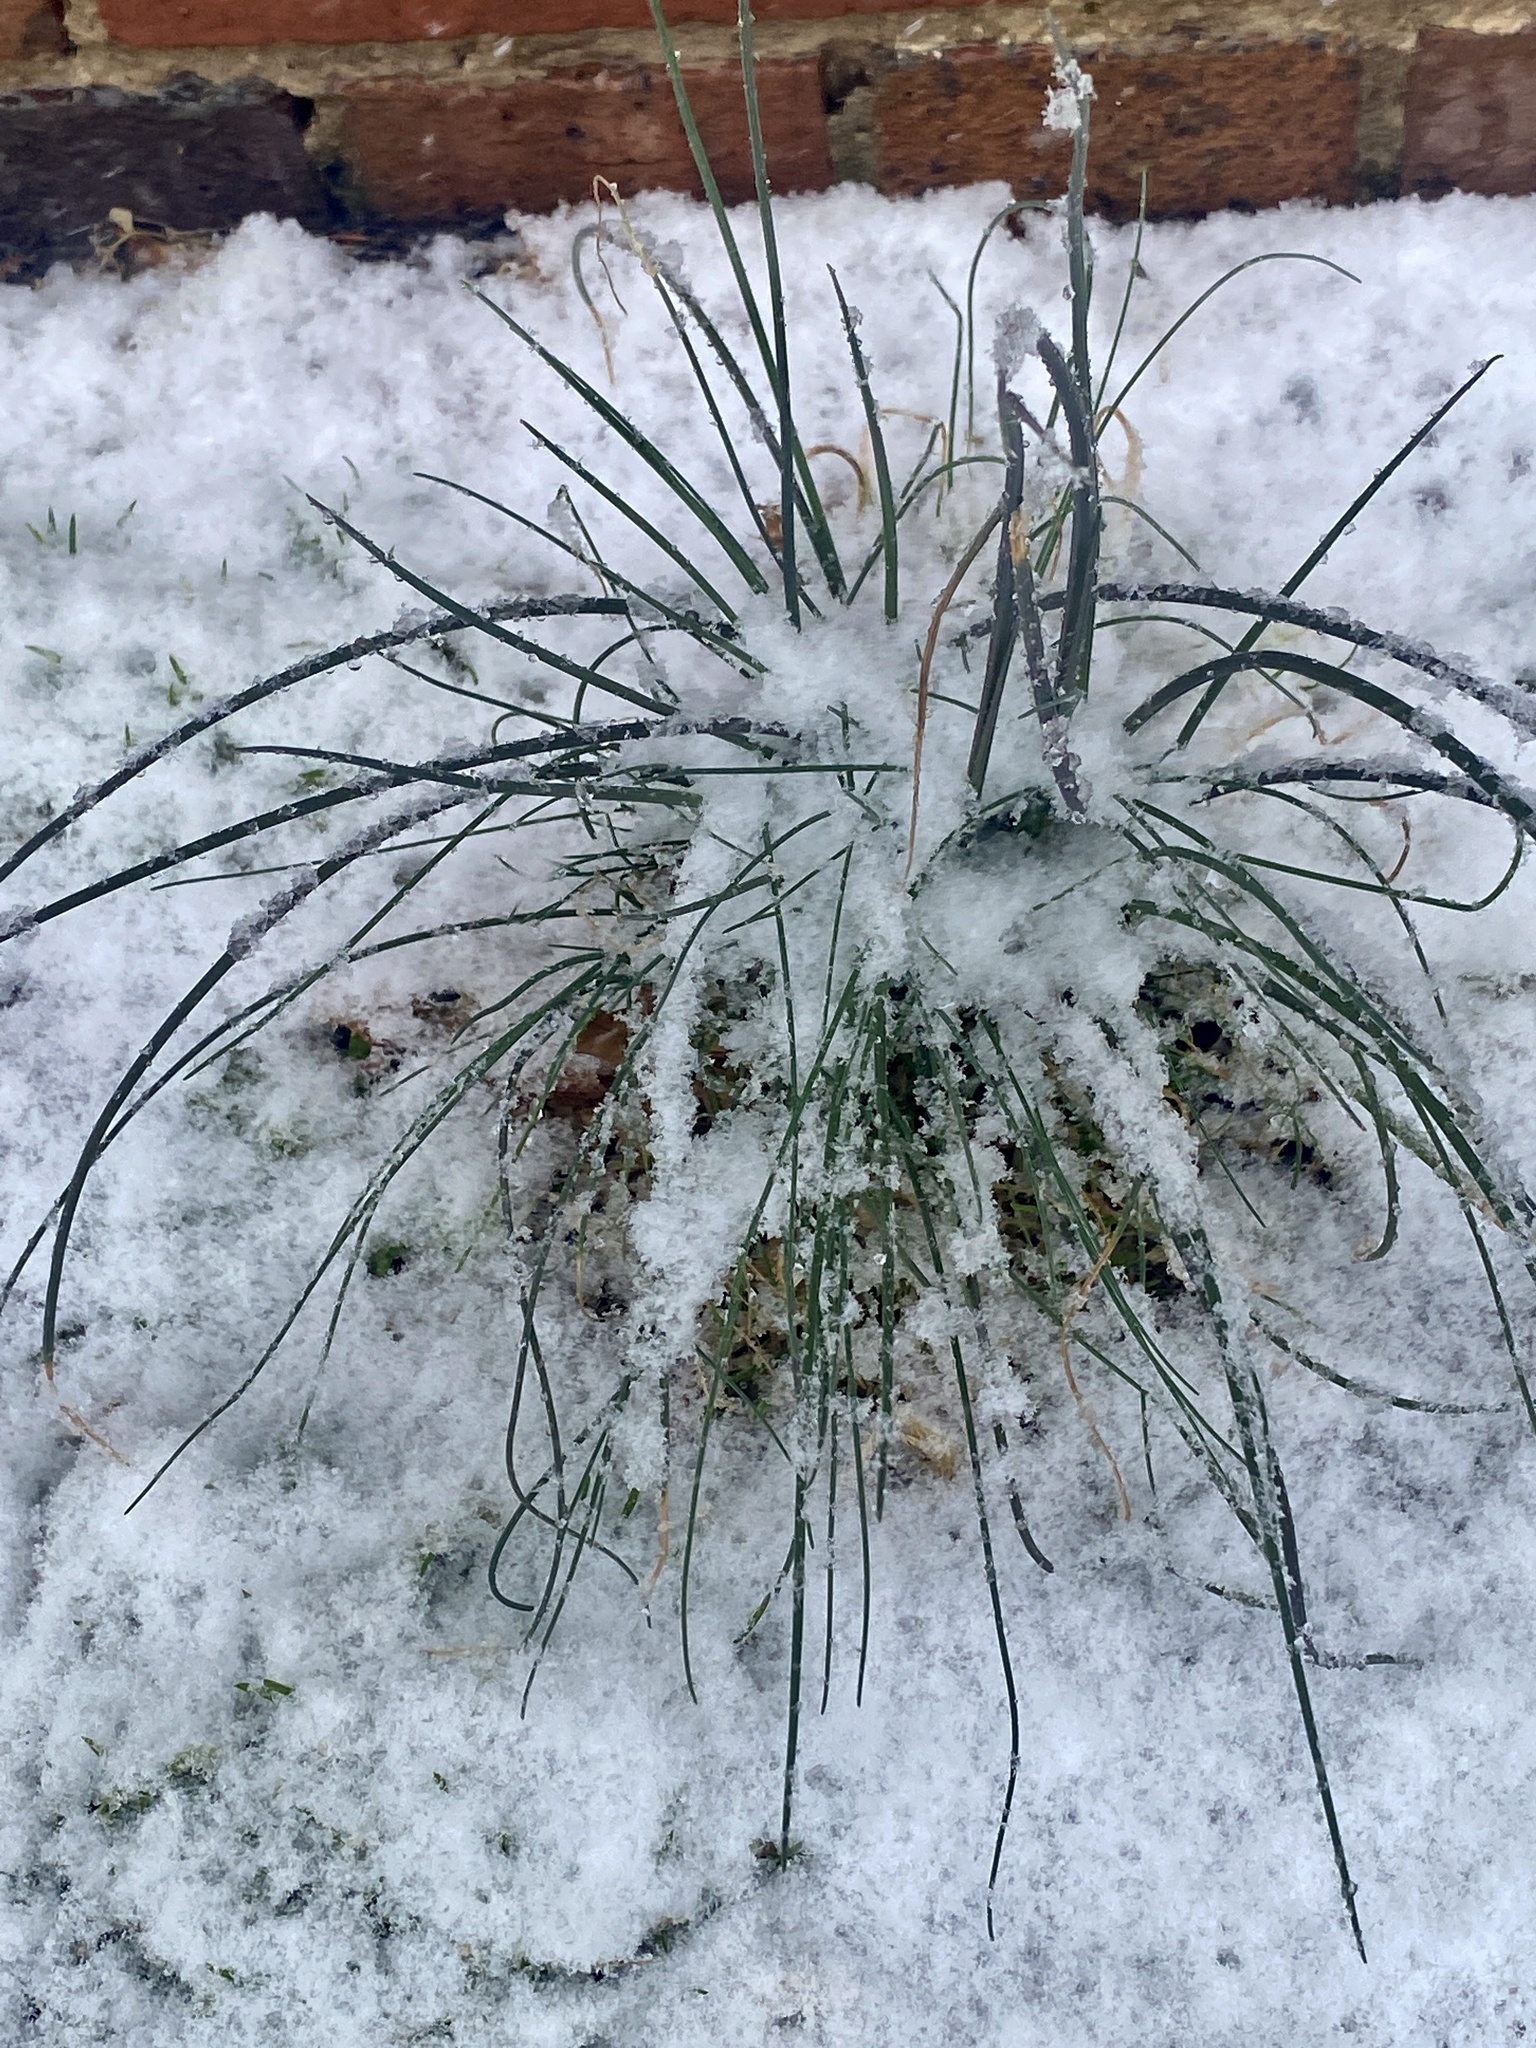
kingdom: Plantae
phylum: Tracheophyta
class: Liliopsida
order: Asparagales
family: Amaryllidaceae
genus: Allium
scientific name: Allium vineale
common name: Crow garlic
